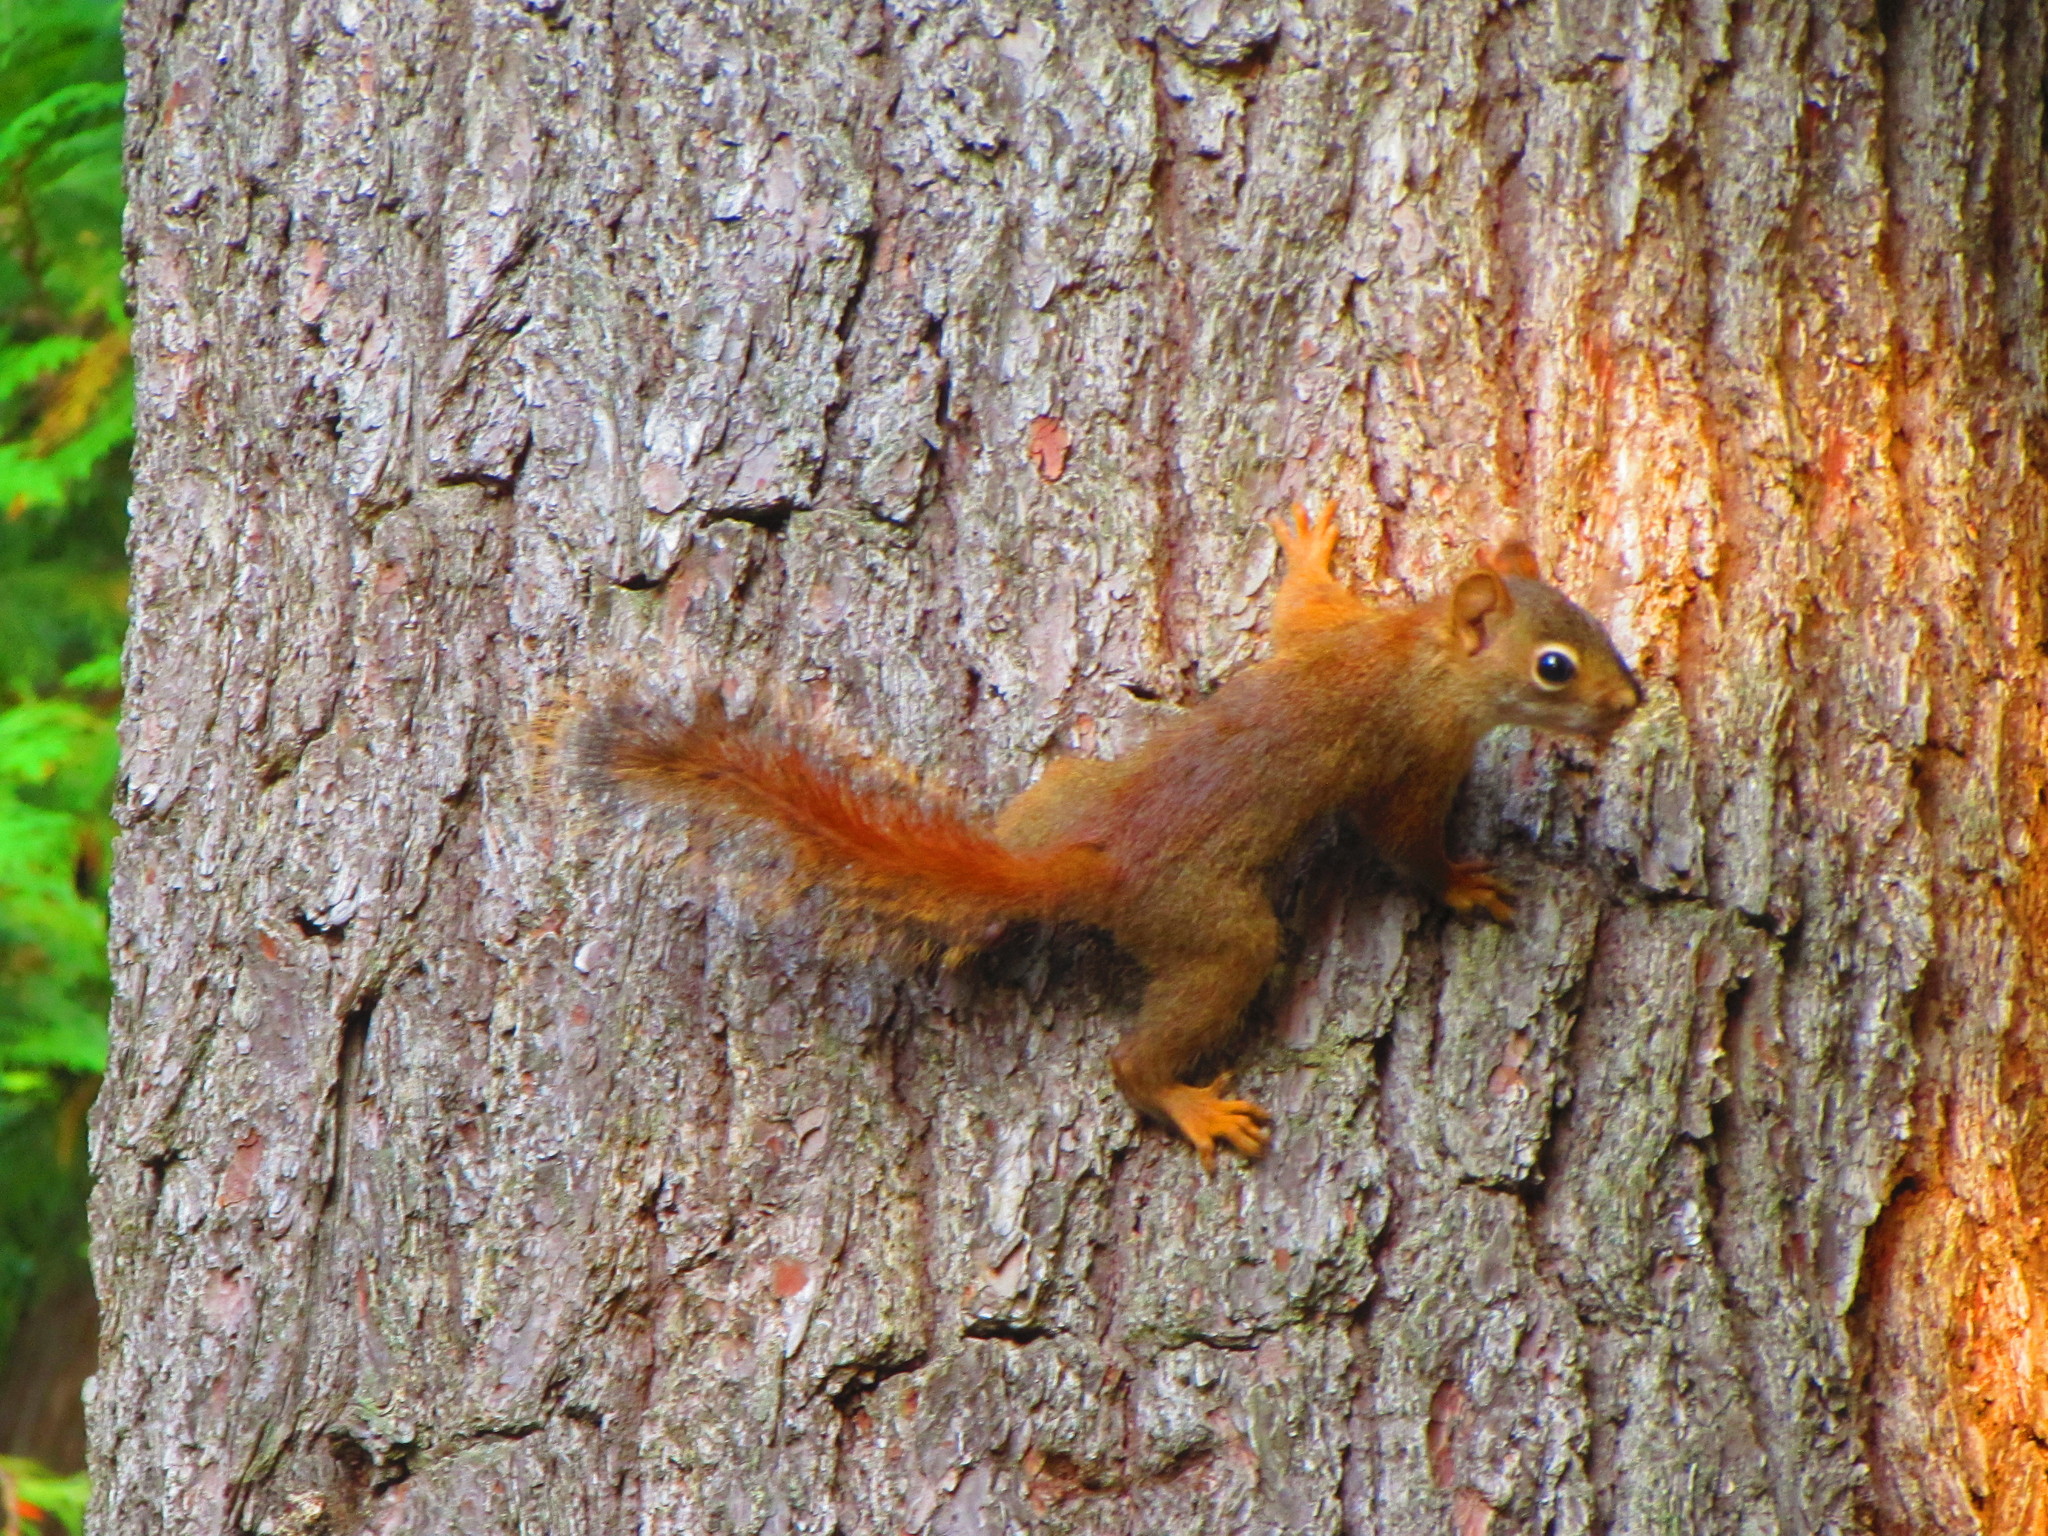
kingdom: Animalia
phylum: Chordata
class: Mammalia
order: Rodentia
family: Sciuridae
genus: Tamiasciurus
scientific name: Tamiasciurus hudsonicus
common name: Red squirrel
